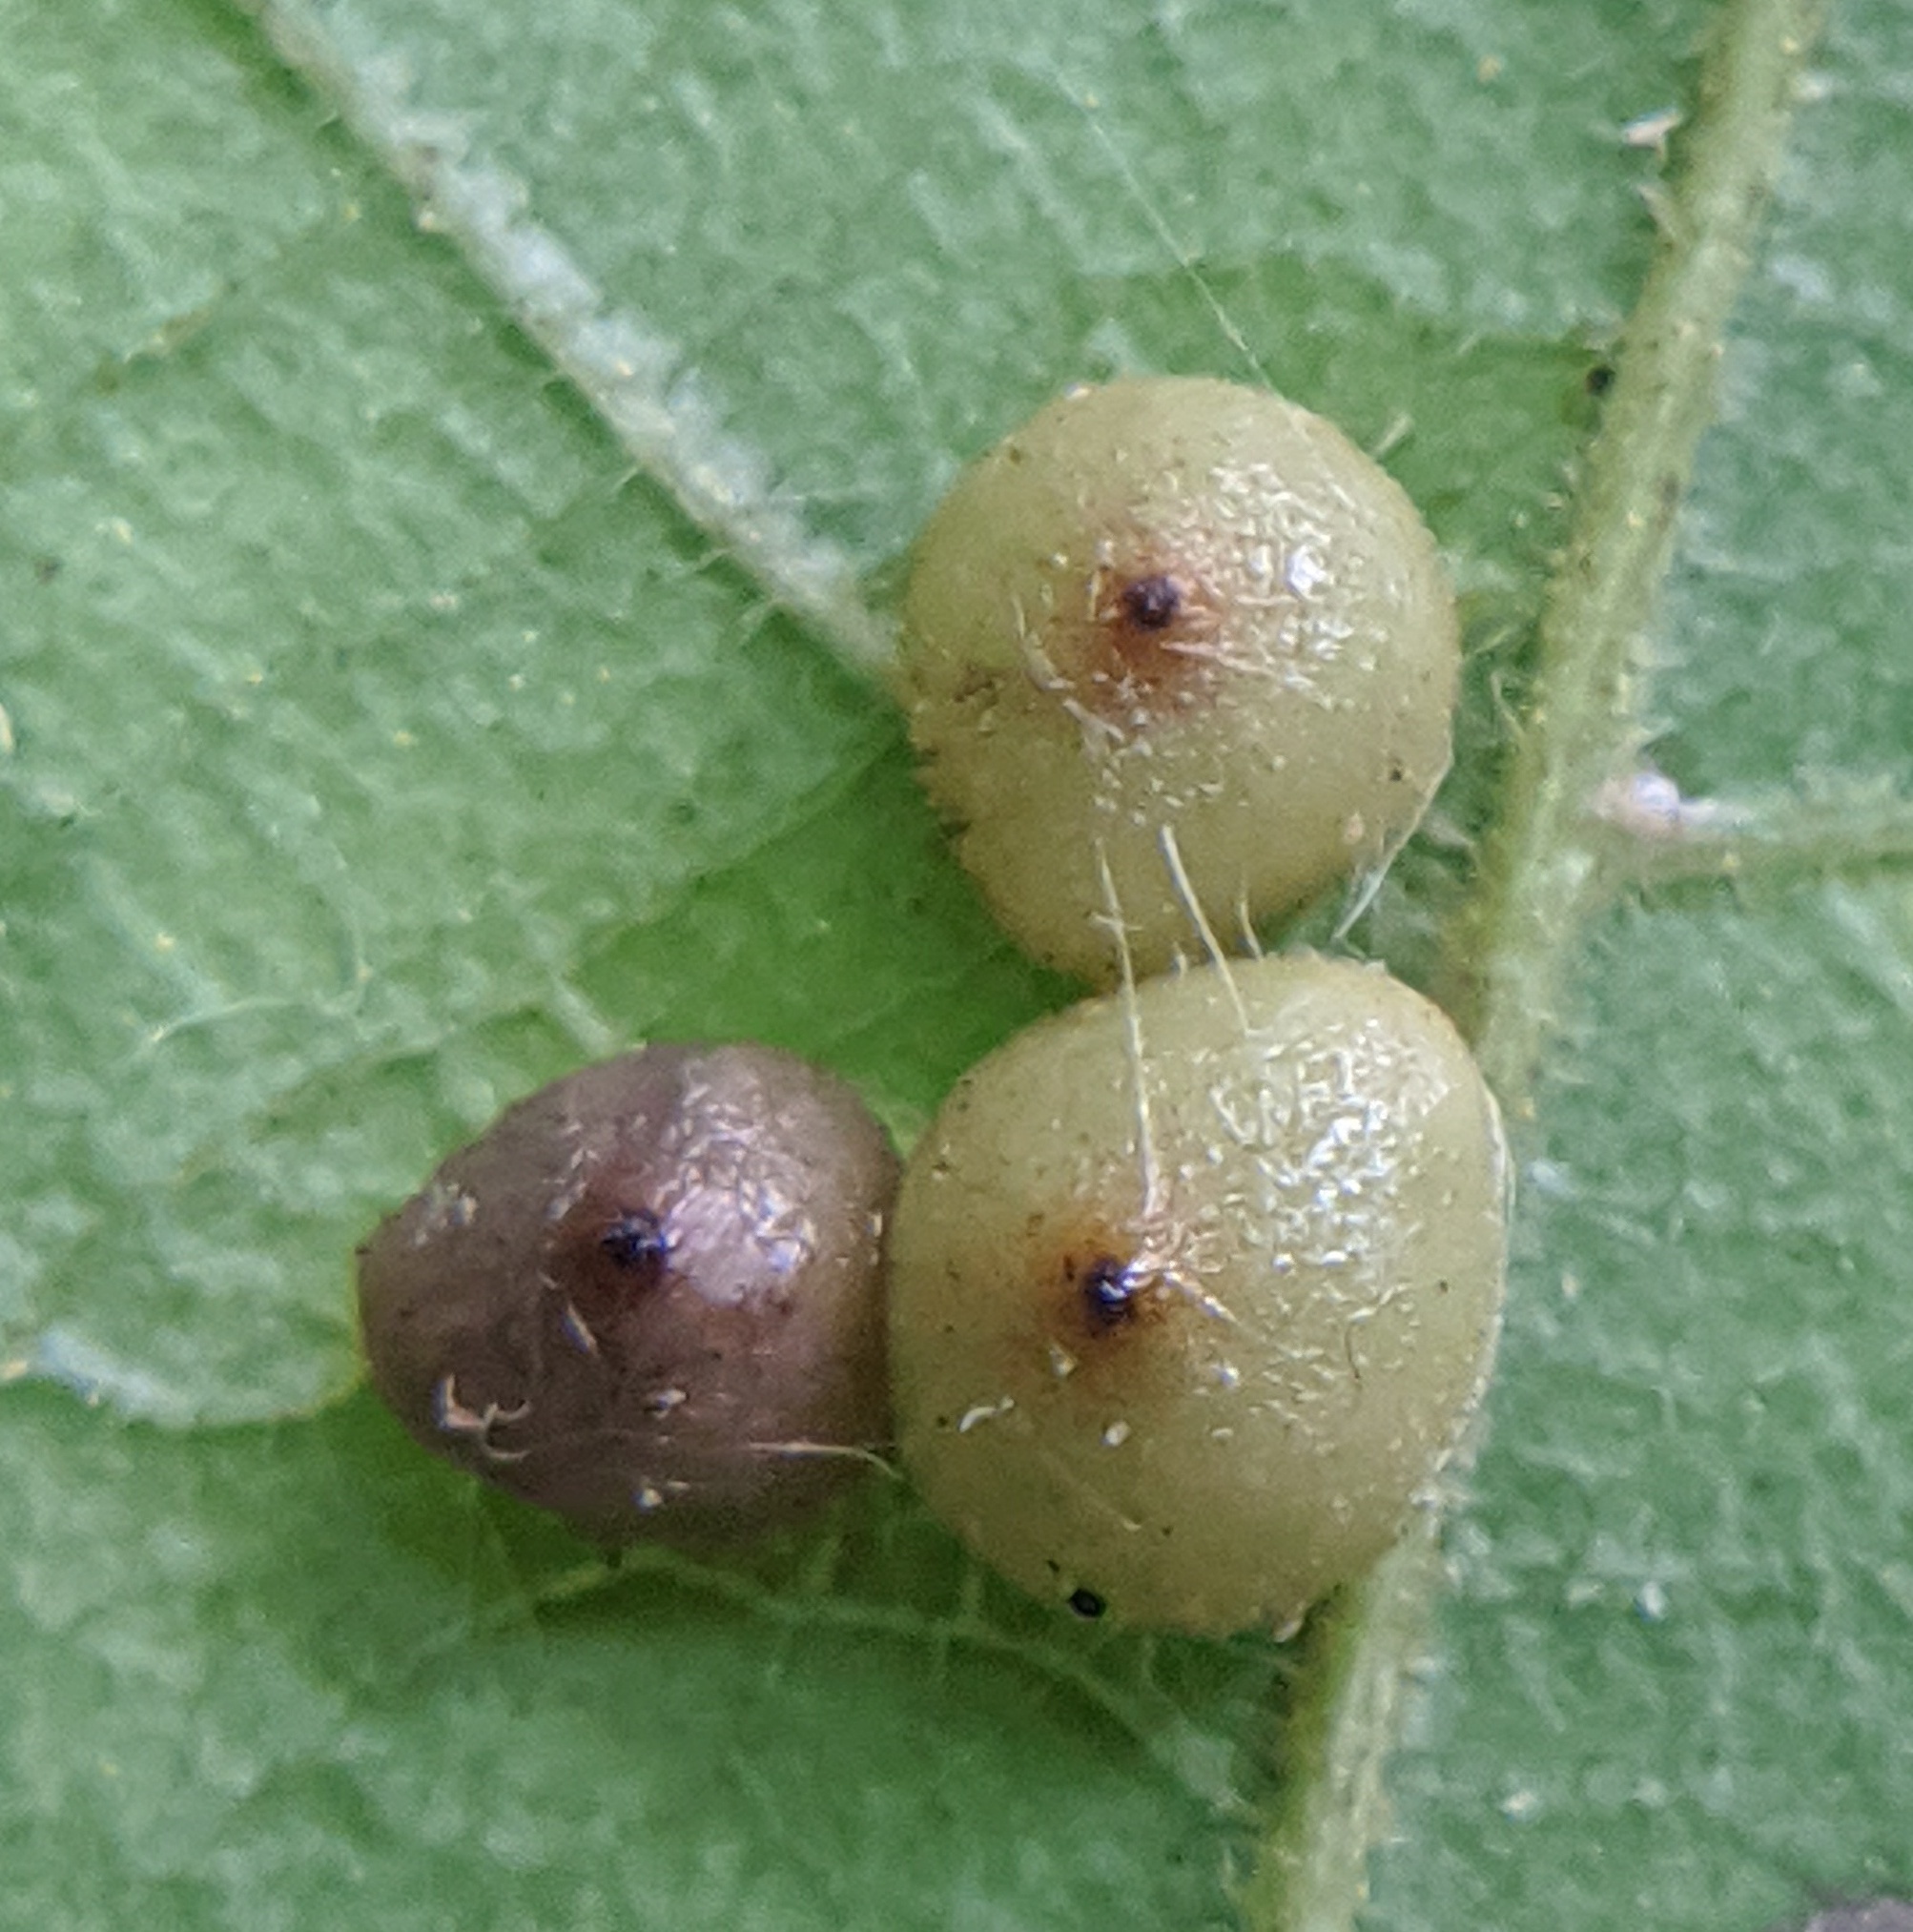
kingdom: Animalia
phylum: Arthropoda
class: Insecta
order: Diptera
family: Cecidomyiidae
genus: Caryomyia
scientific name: Caryomyia caryae
